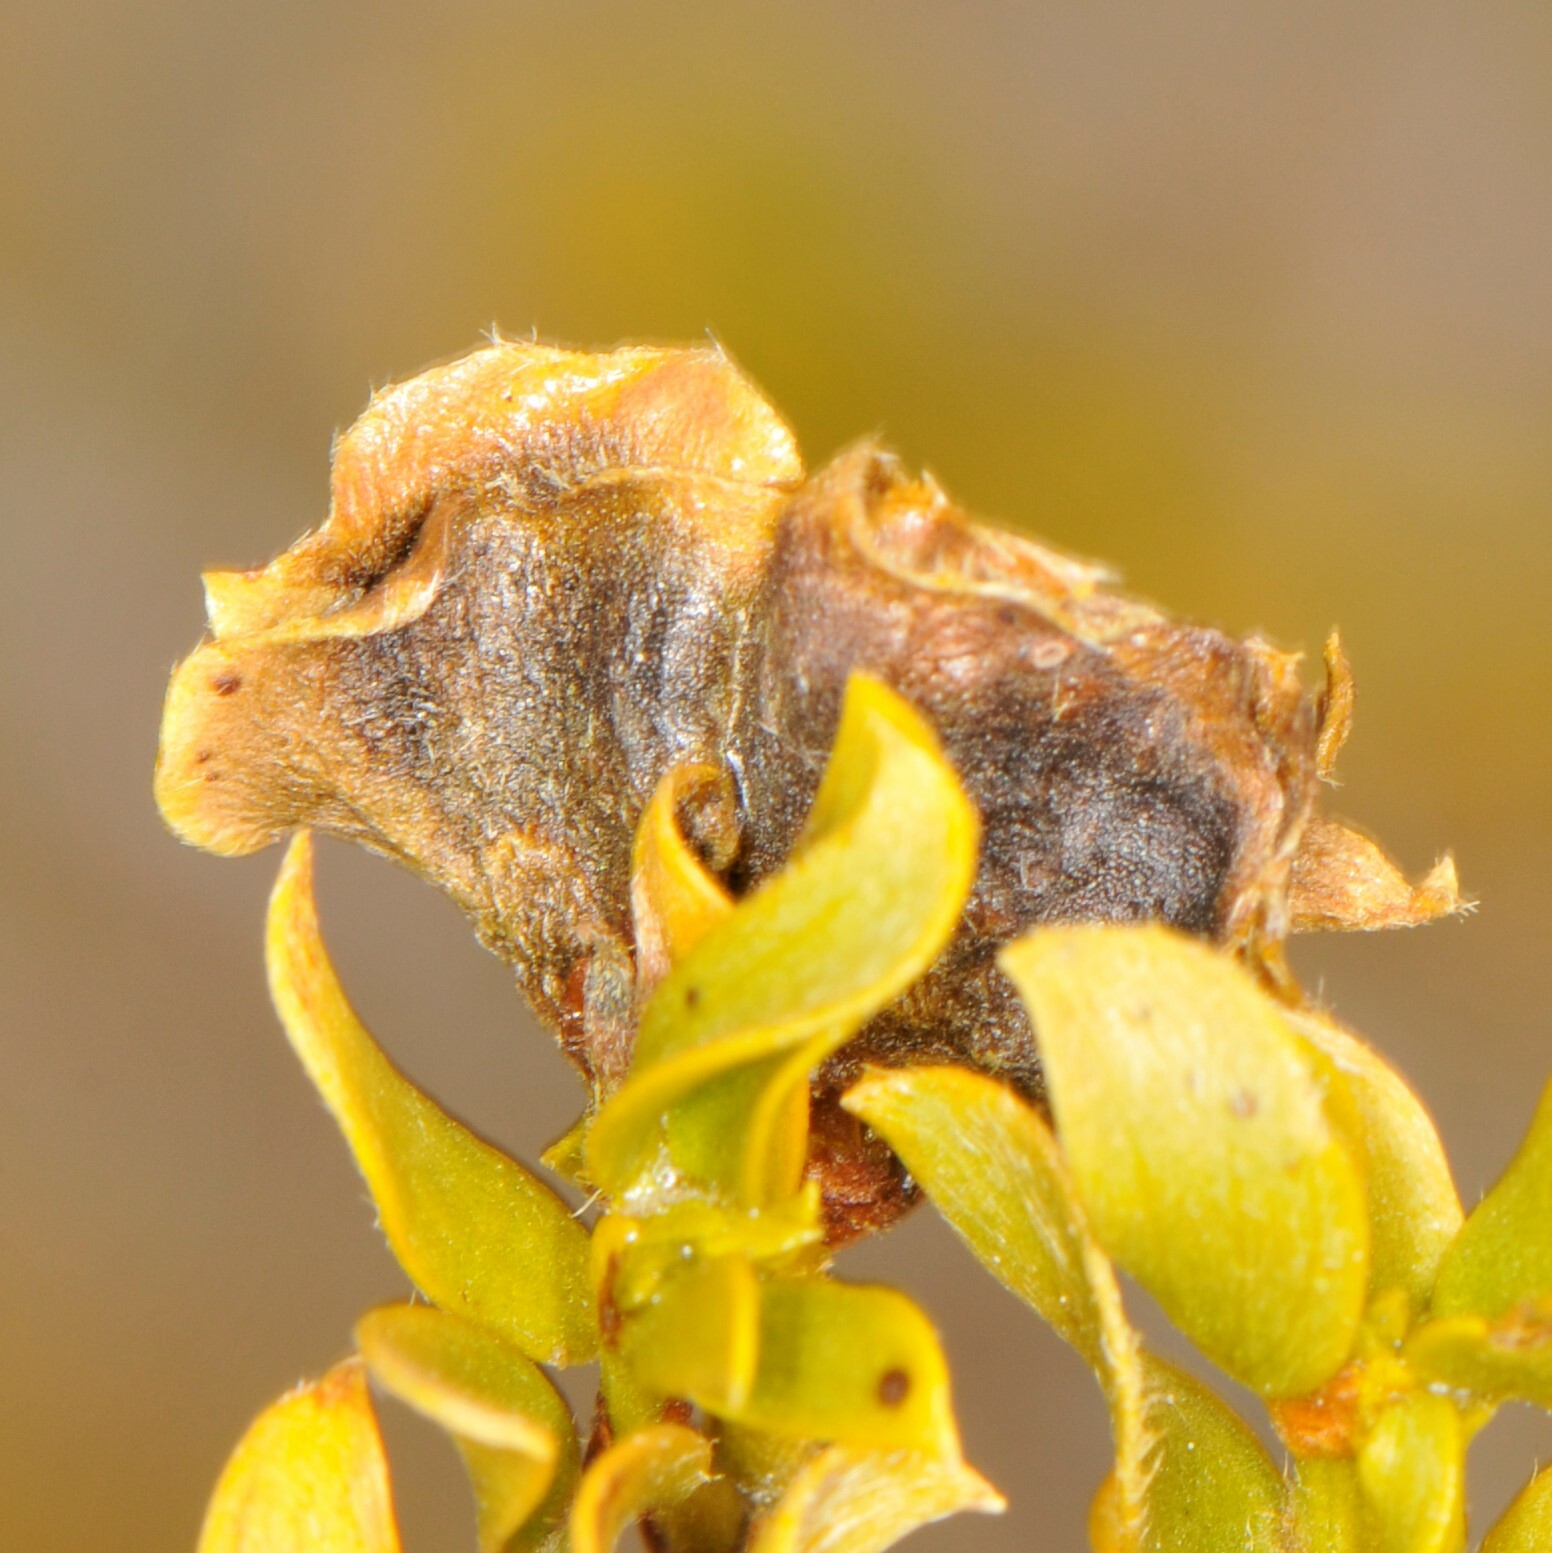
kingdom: Animalia
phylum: Arthropoda
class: Insecta
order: Diptera
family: Cecidomyiidae
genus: Contarinia
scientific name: Contarinia
